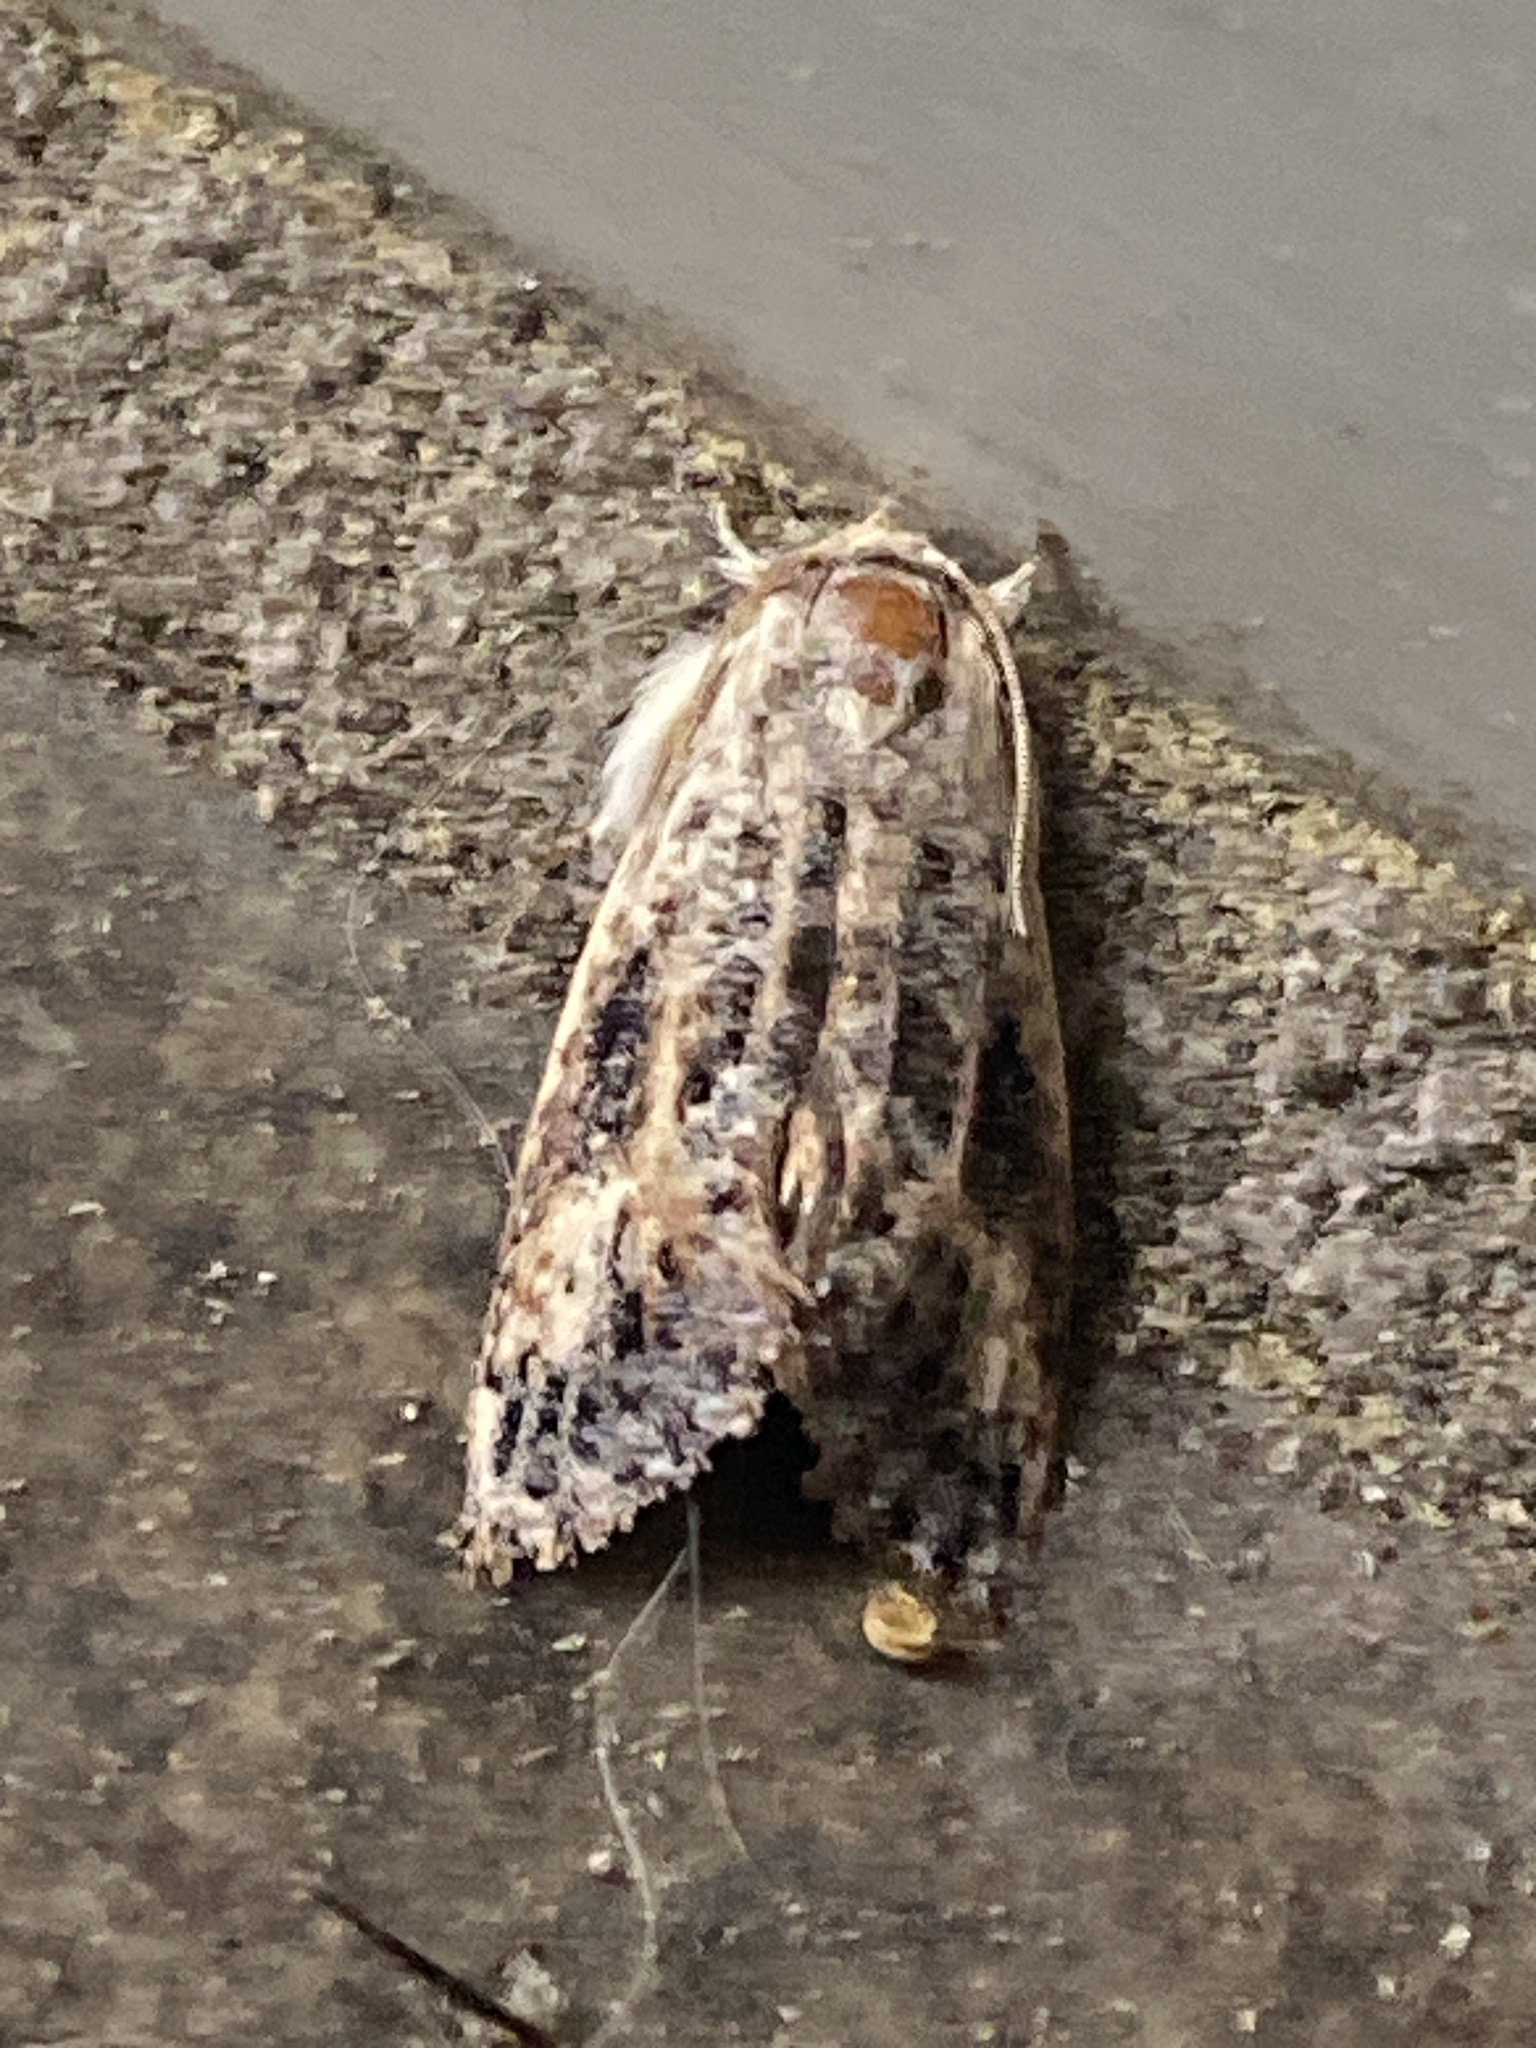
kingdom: Animalia
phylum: Arthropoda
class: Insecta
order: Lepidoptera
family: Tineidae
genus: Acrolophus
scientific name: Acrolophus mycetophagus
